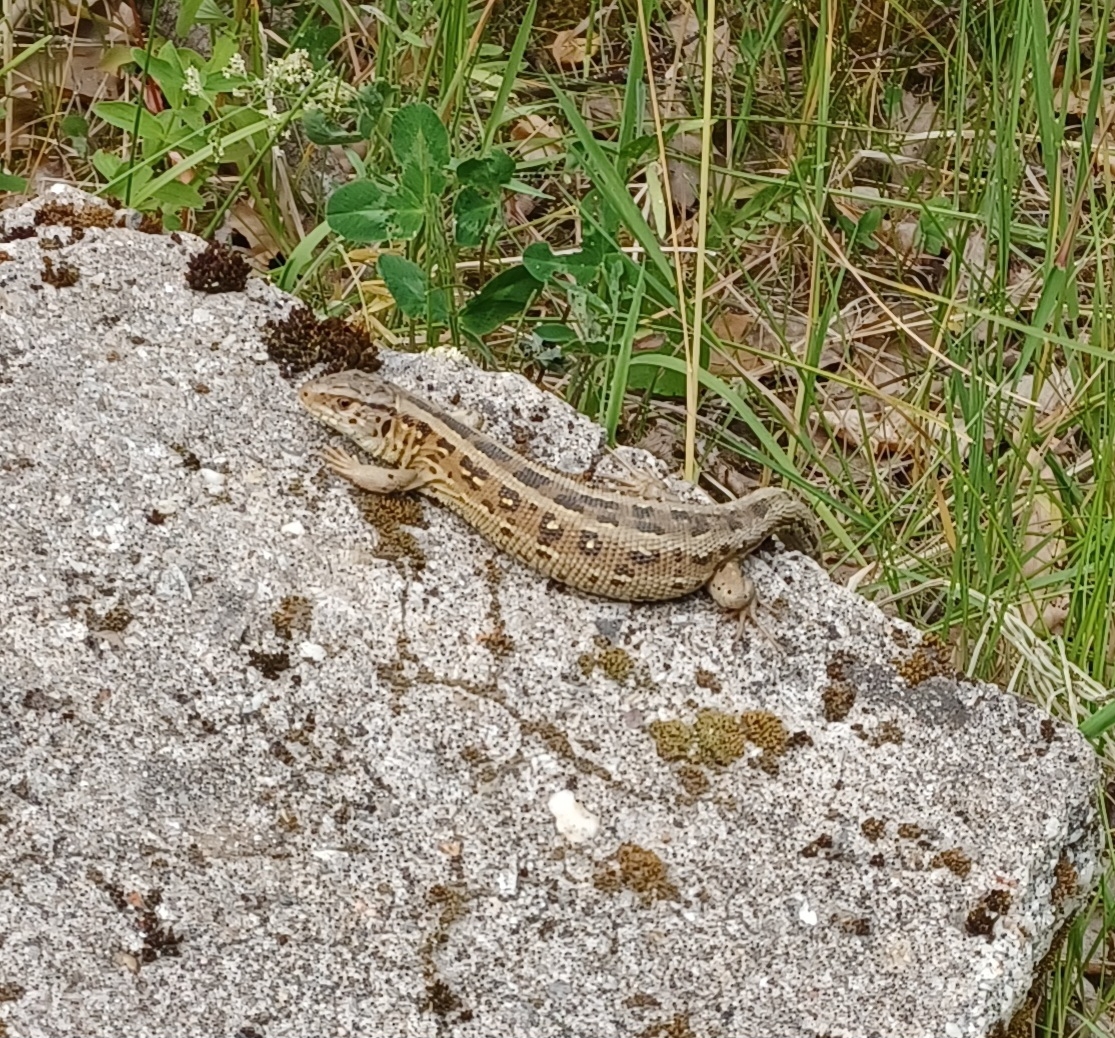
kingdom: Animalia
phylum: Chordata
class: Squamata
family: Lacertidae
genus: Lacerta
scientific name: Lacerta agilis
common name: Sand lizard
